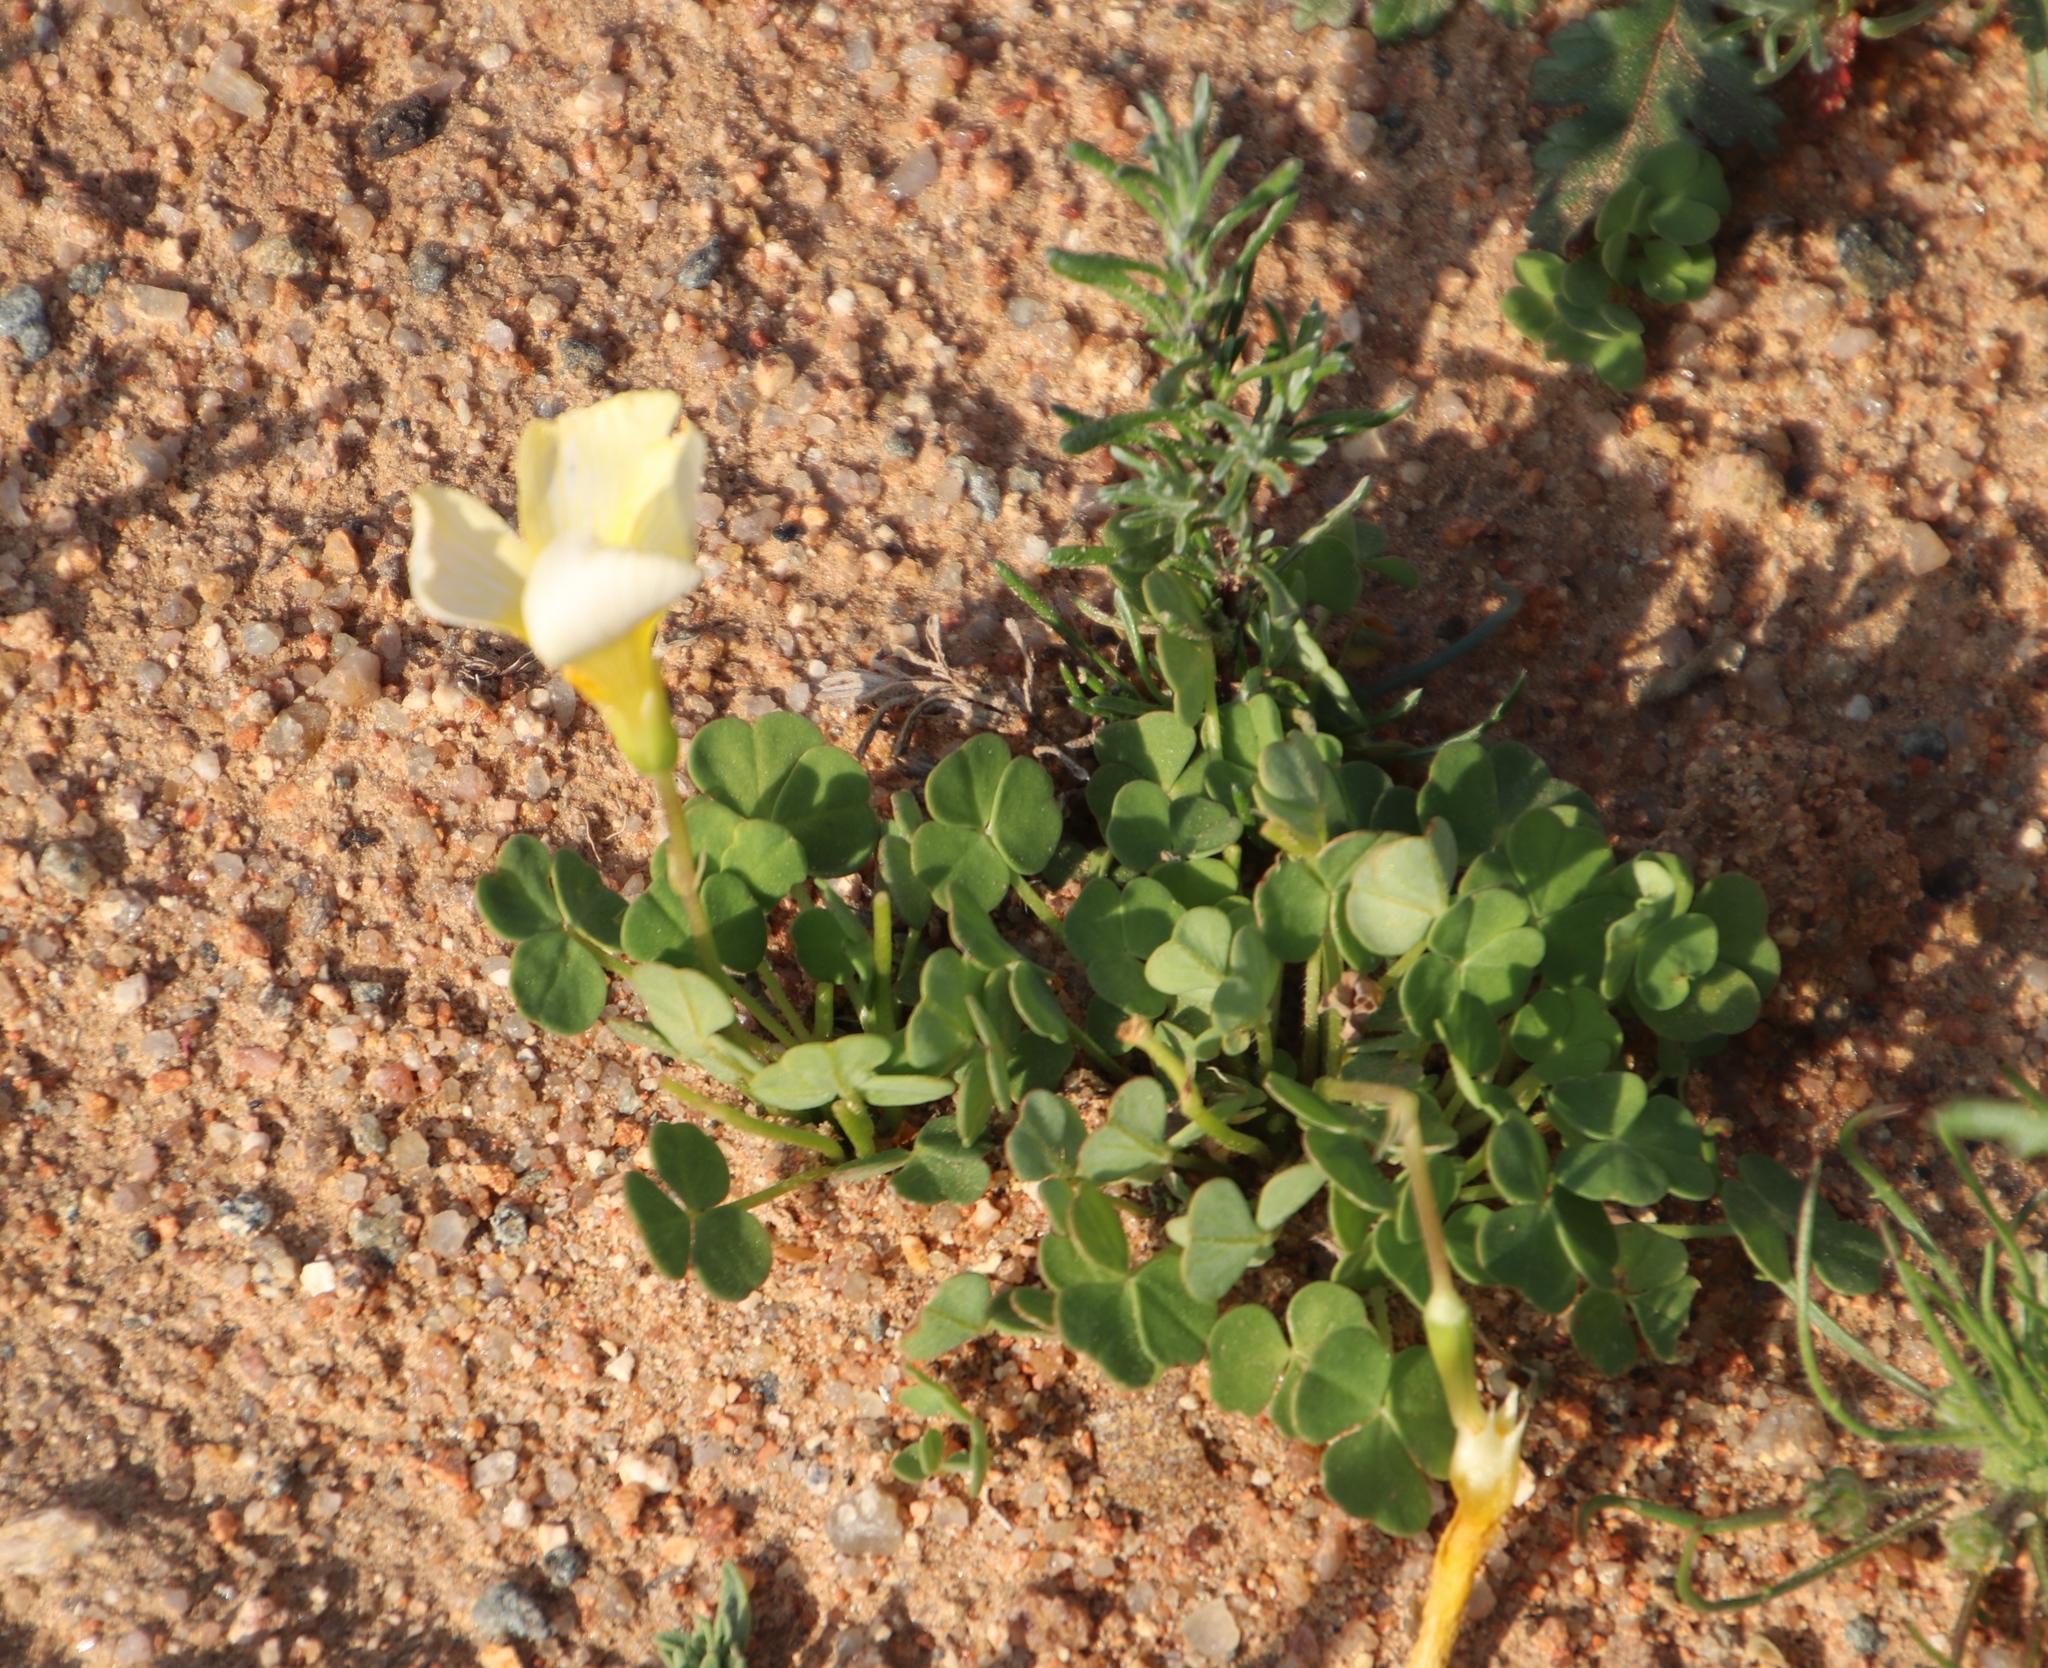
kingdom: Plantae
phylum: Tracheophyta
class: Magnoliopsida
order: Oxalidales
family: Oxalidaceae
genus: Oxalis
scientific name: Oxalis obtusa
